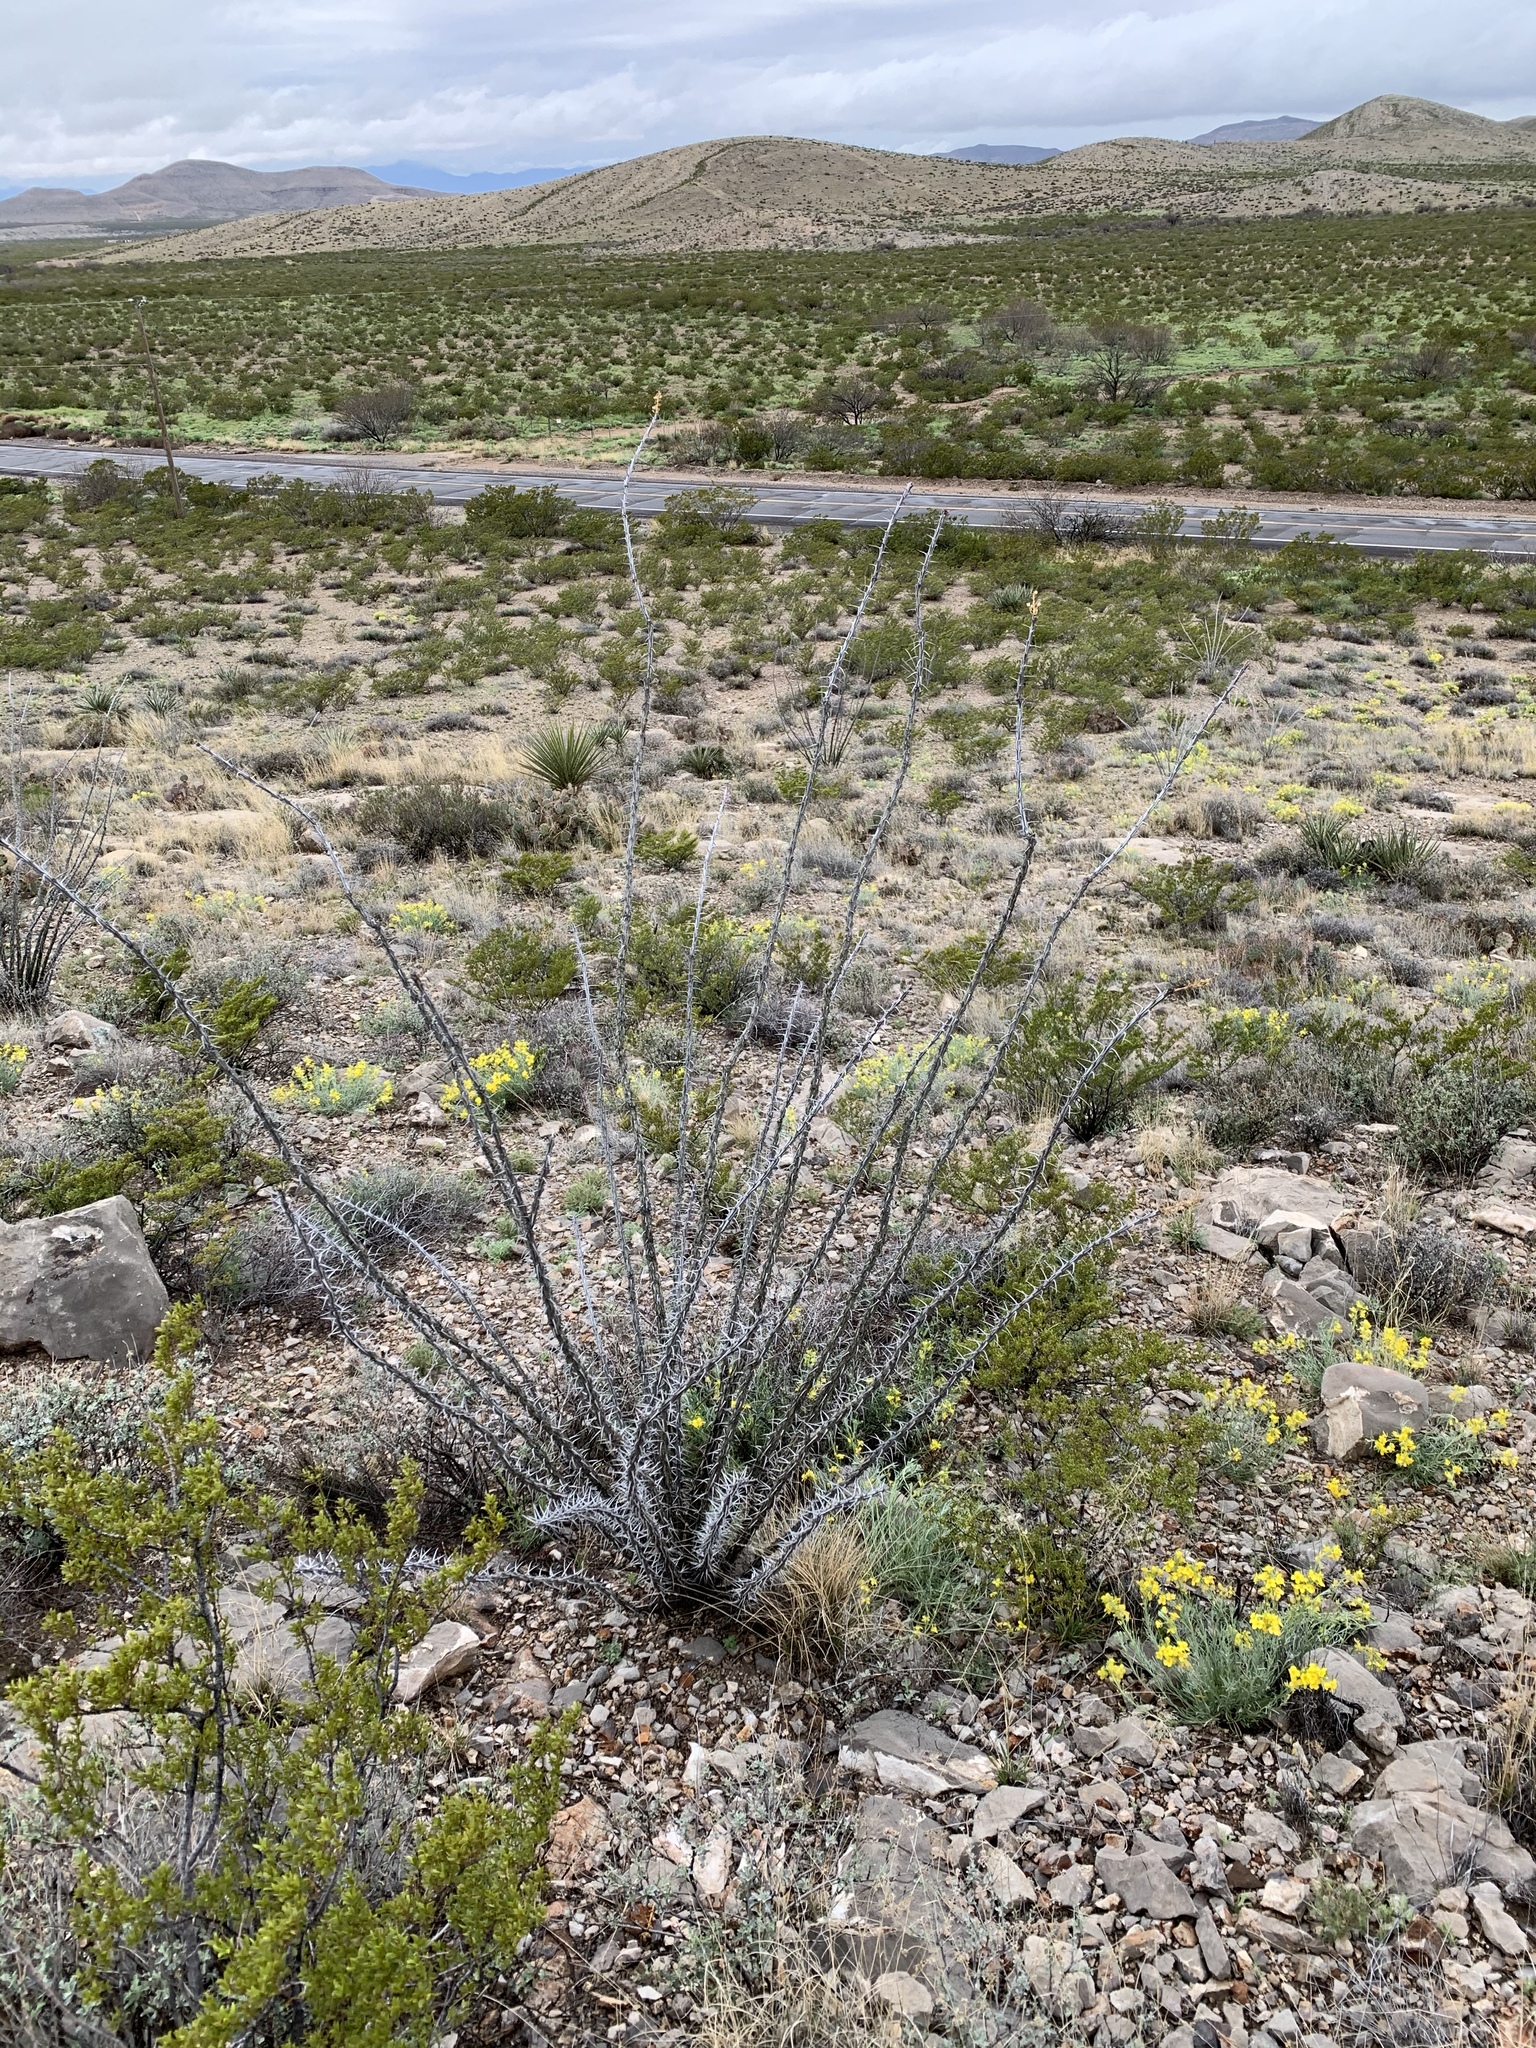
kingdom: Plantae
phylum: Tracheophyta
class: Magnoliopsida
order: Ericales
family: Fouquieriaceae
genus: Fouquieria
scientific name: Fouquieria splendens
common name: Vine-cactus
